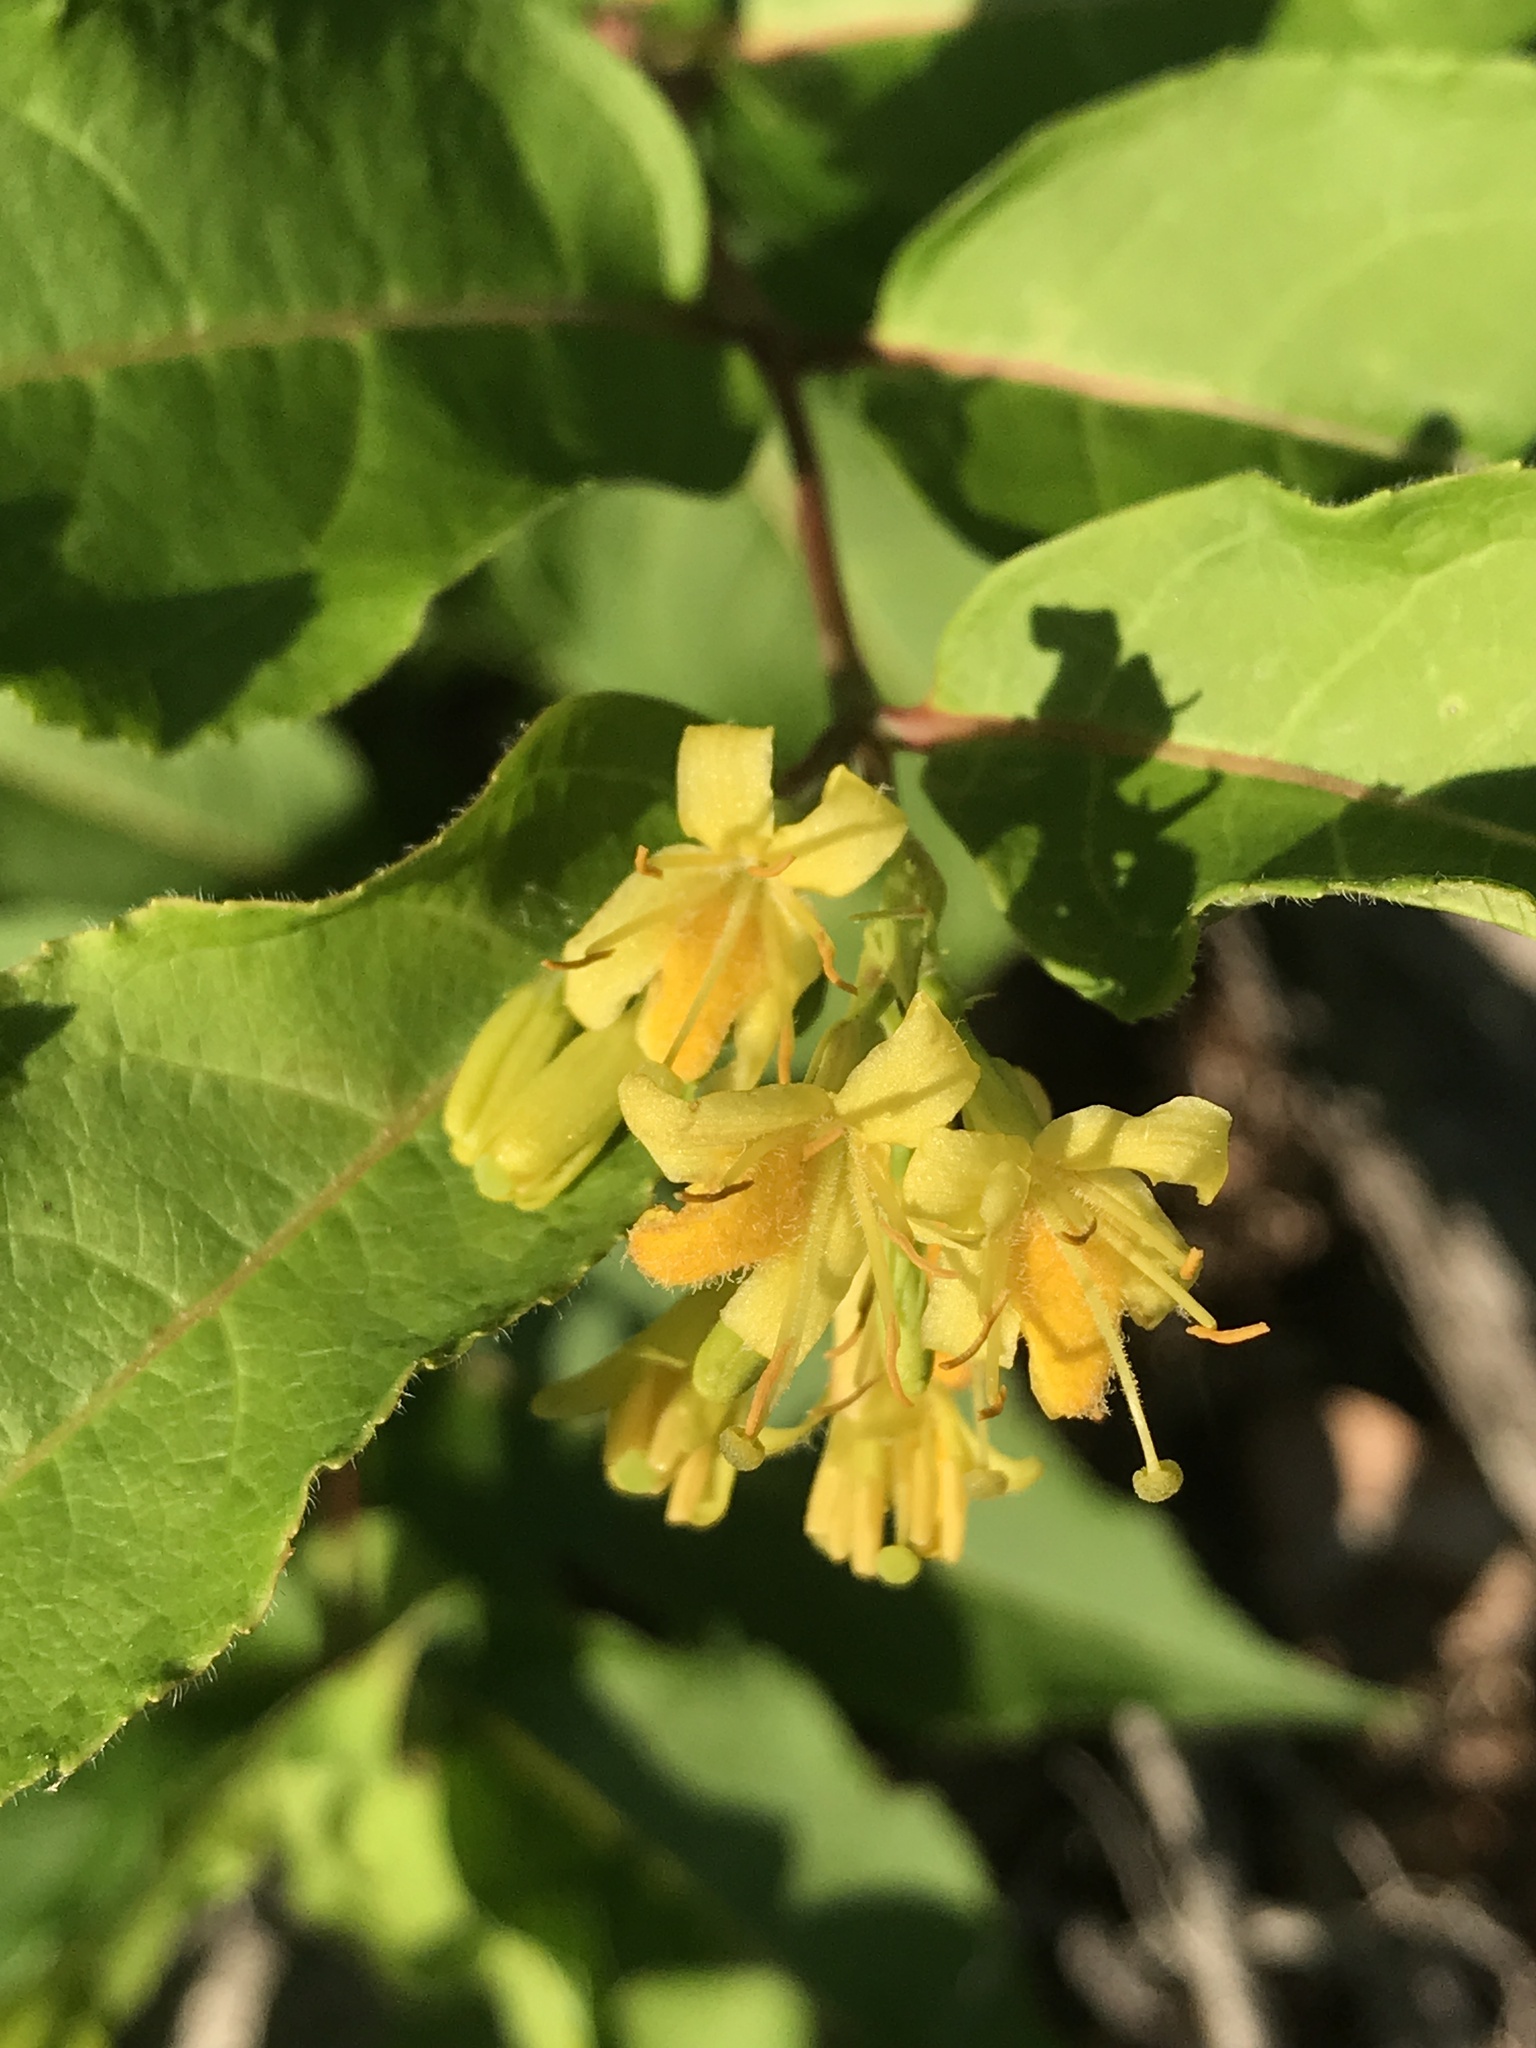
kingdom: Plantae
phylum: Tracheophyta
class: Magnoliopsida
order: Dipsacales
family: Caprifoliaceae
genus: Diervilla
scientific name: Diervilla lonicera
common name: Bush-honeysuckle
